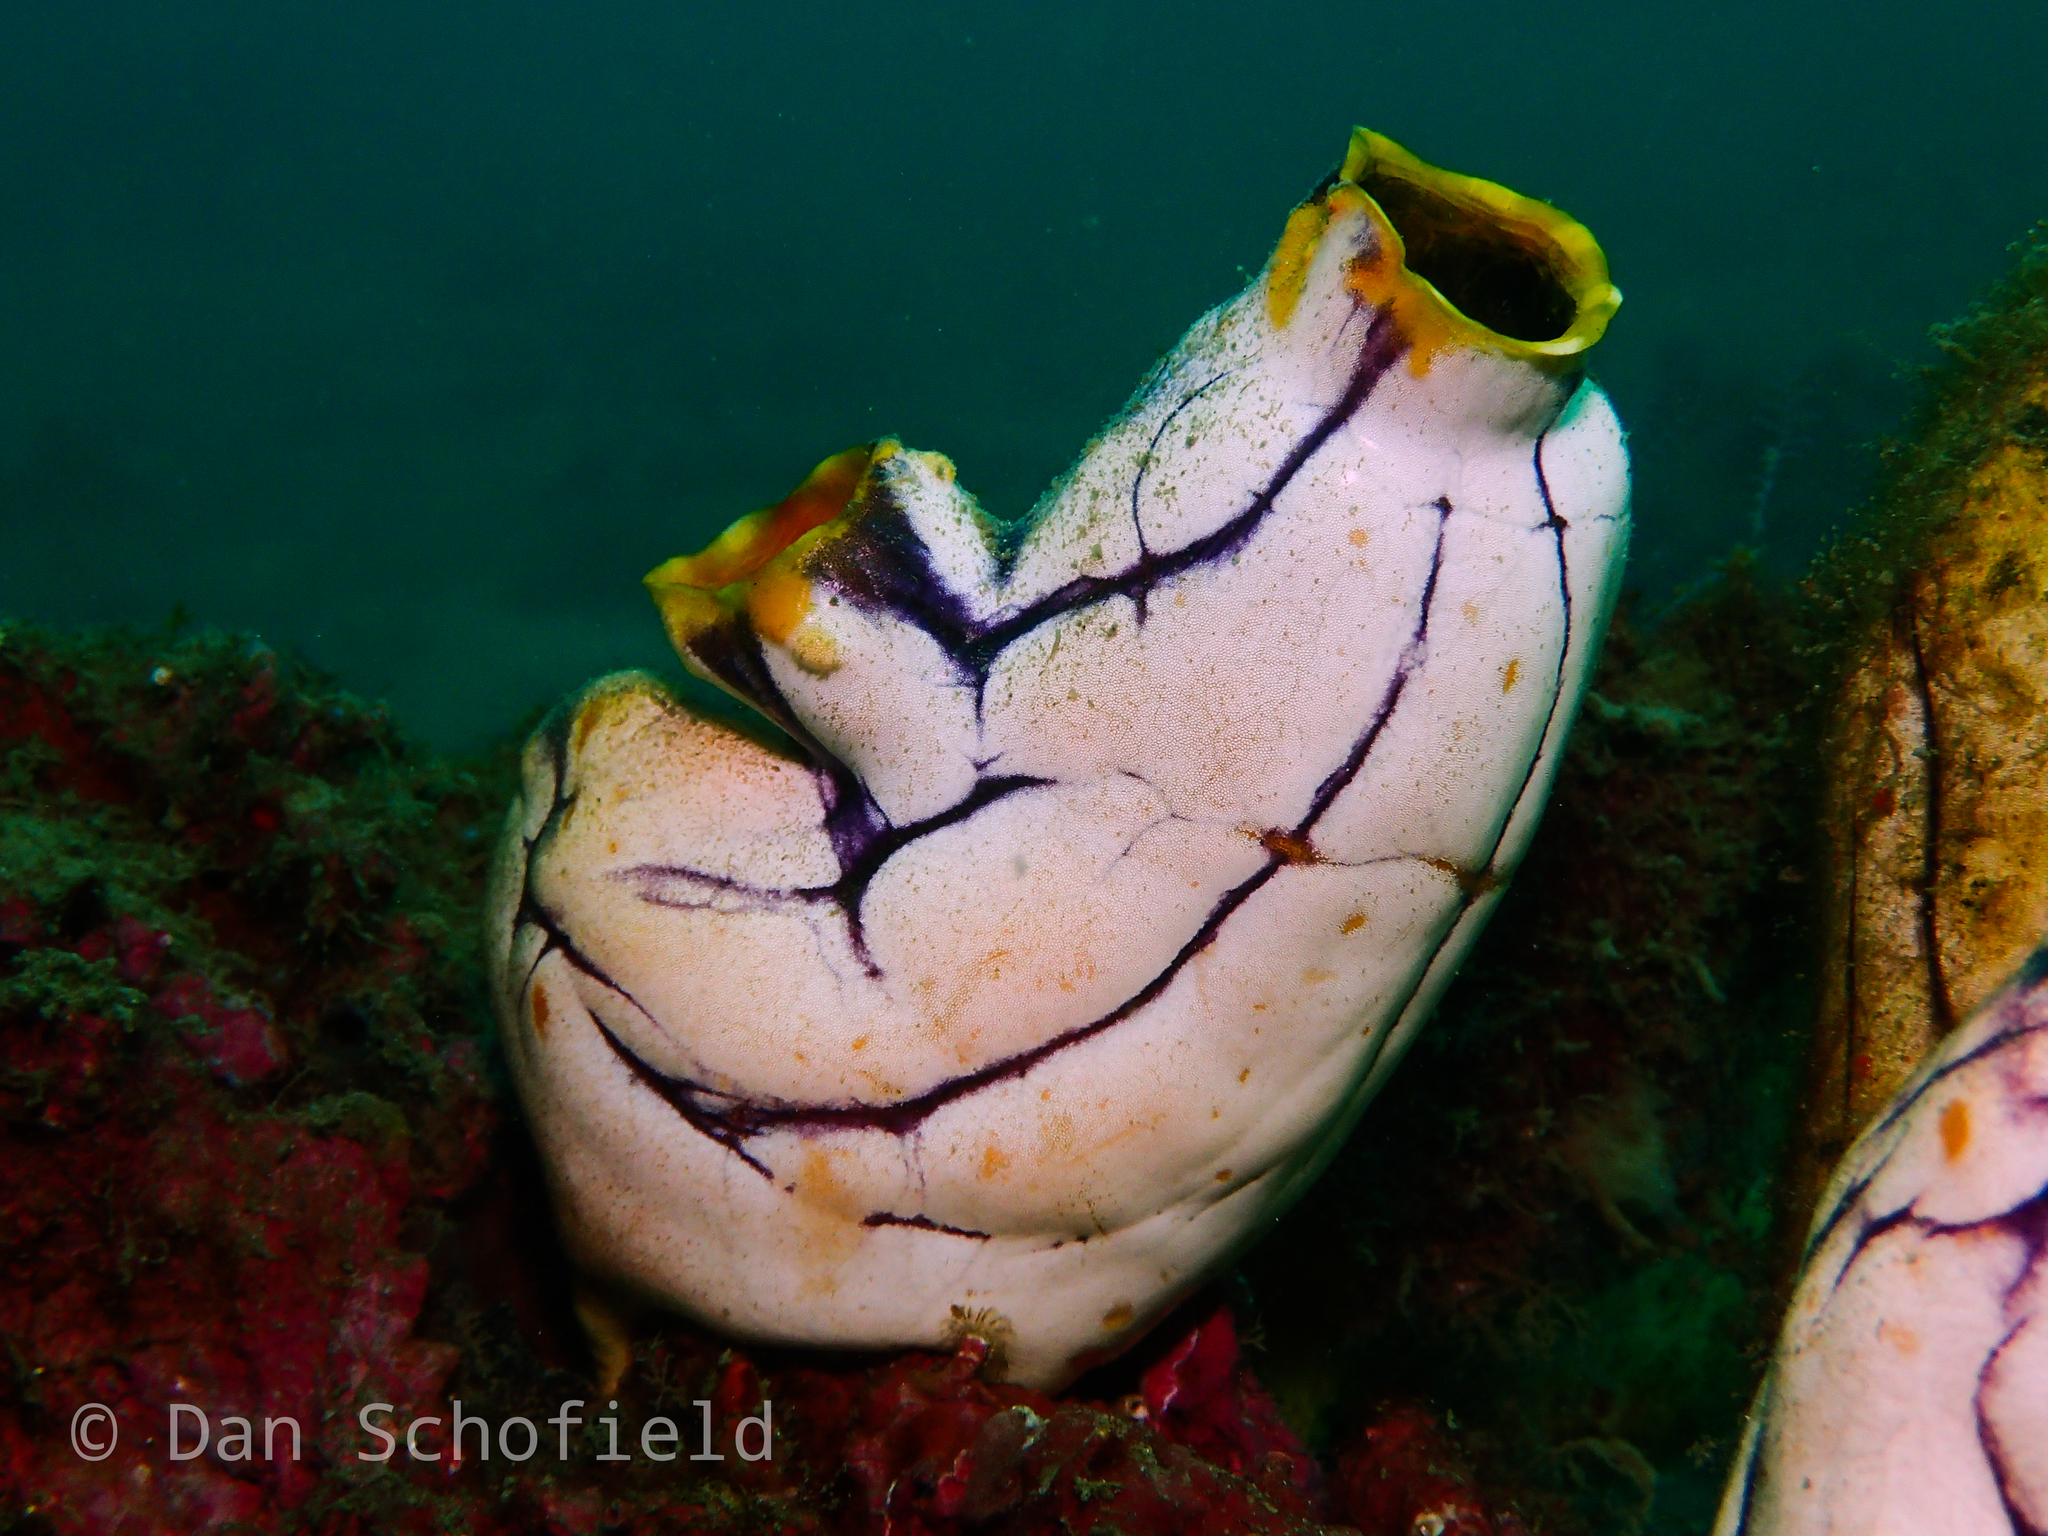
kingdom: Animalia
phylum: Chordata
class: Ascidiacea
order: Stolidobranchia
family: Styelidae
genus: Polycarpa
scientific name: Polycarpa aurata
